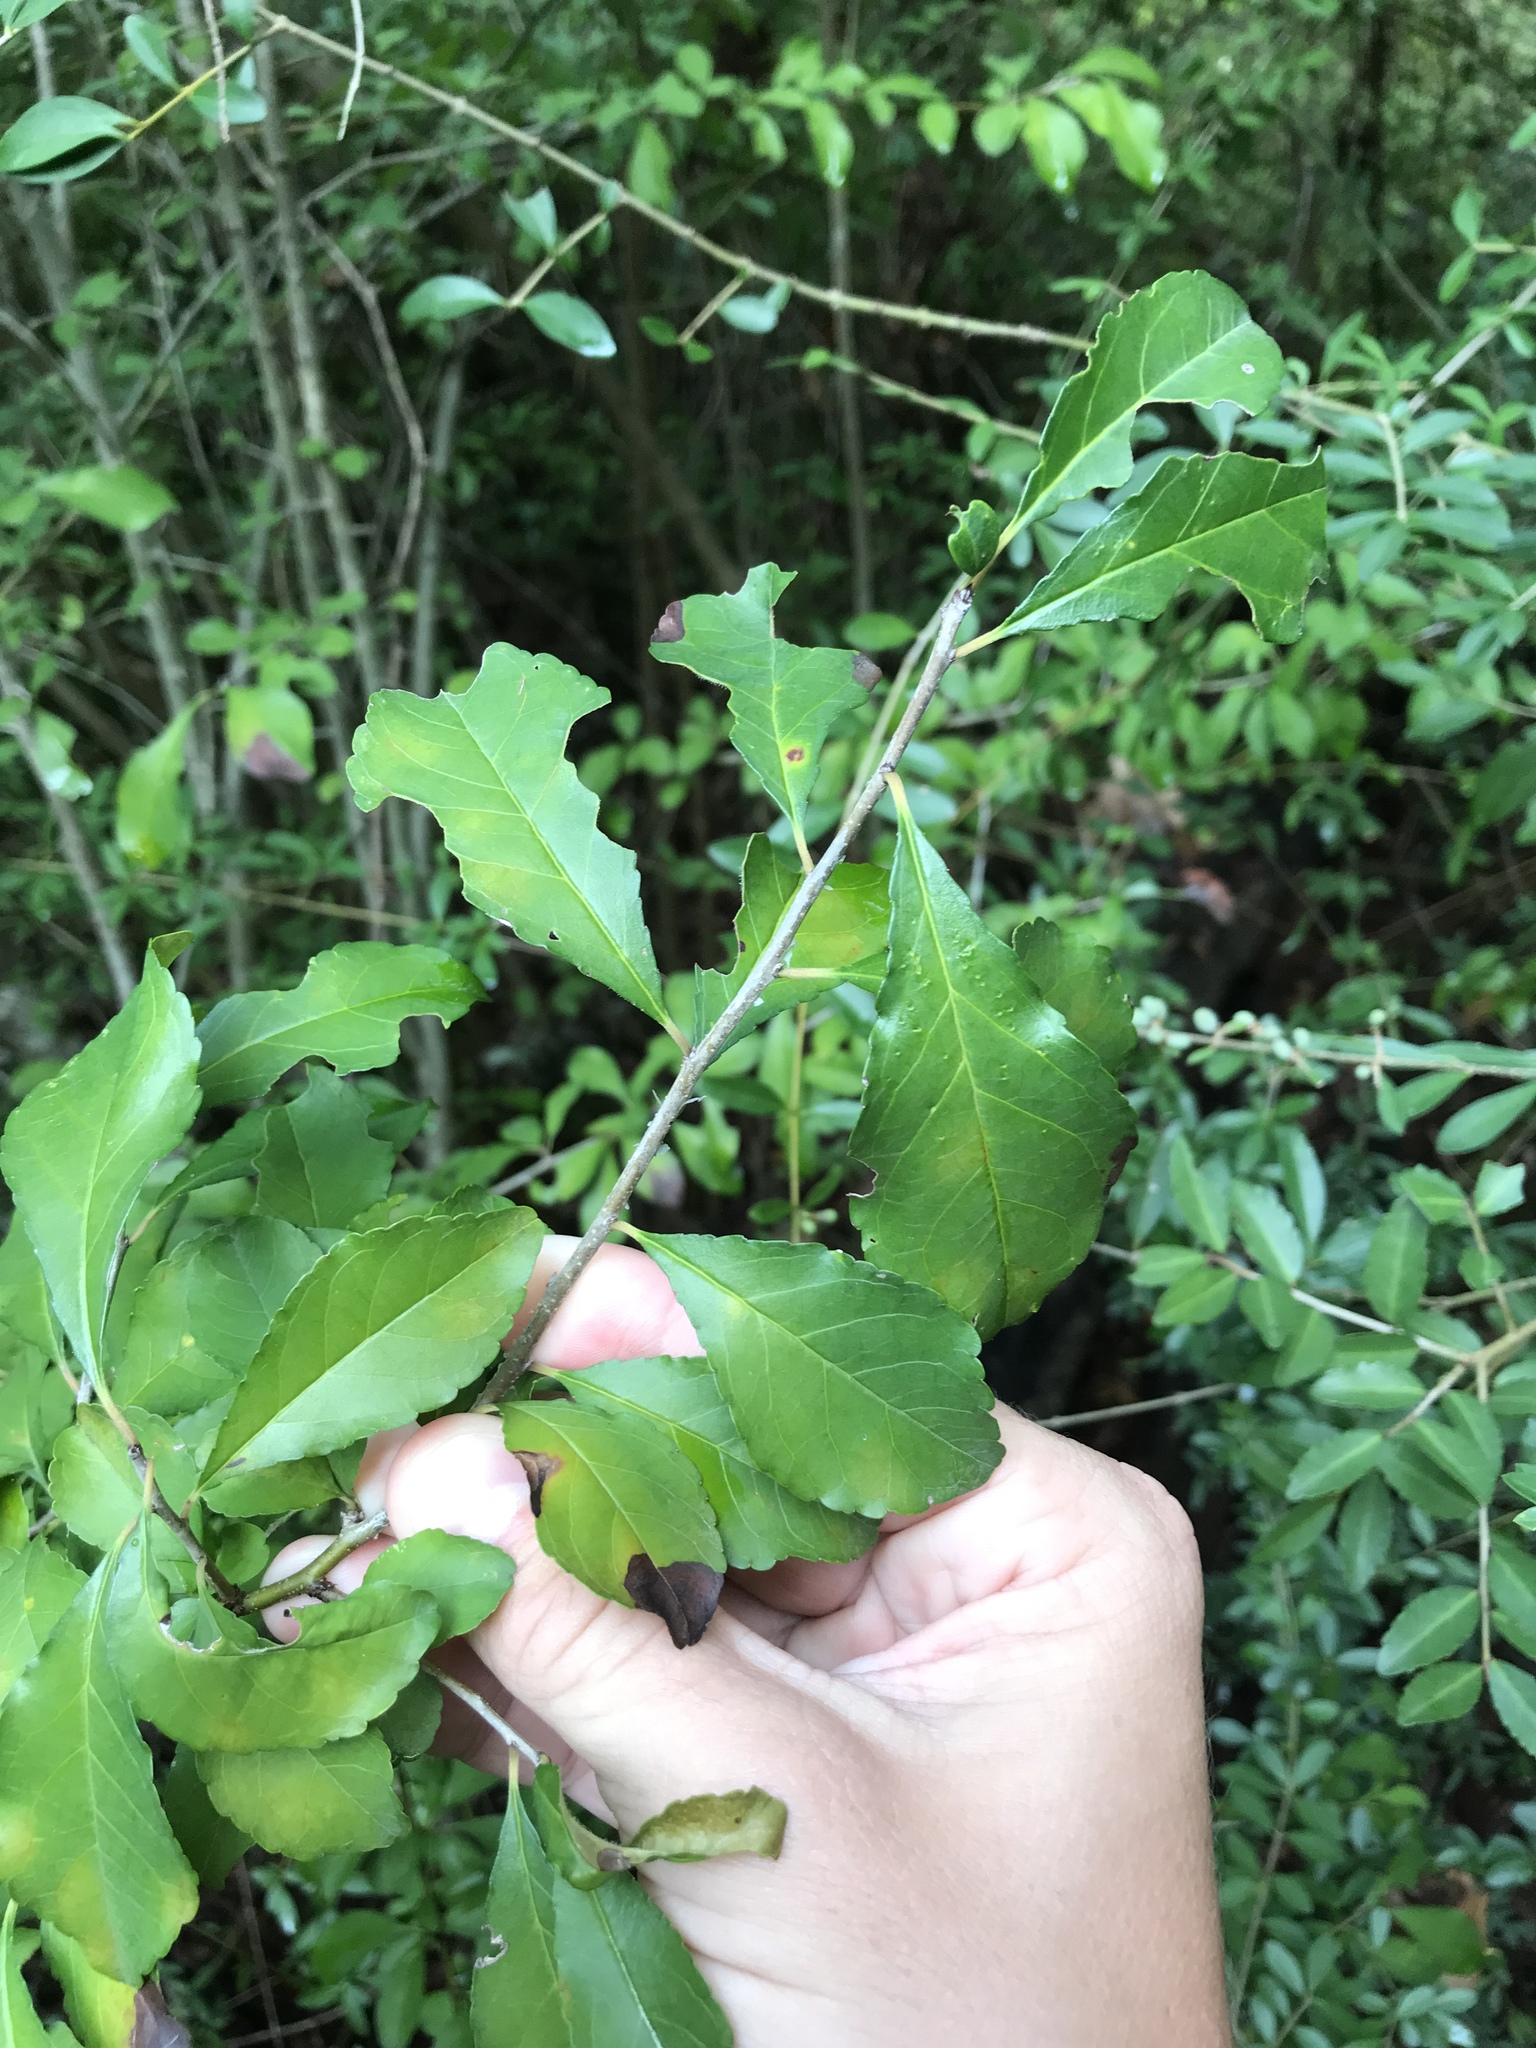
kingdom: Plantae
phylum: Tracheophyta
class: Magnoliopsida
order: Aquifoliales
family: Aquifoliaceae
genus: Ilex
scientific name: Ilex decidua
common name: Possum-haw
